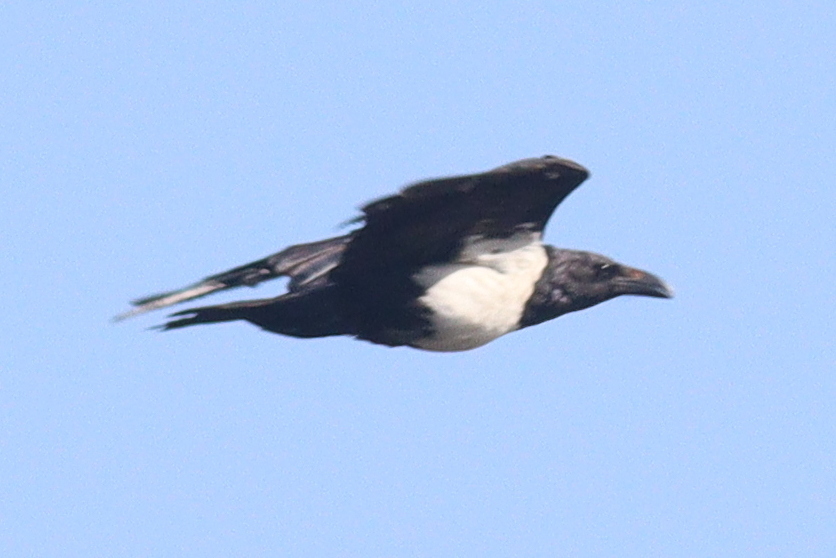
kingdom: Animalia
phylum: Chordata
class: Aves
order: Passeriformes
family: Corvidae
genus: Corvus
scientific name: Corvus albus
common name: Pied crow
